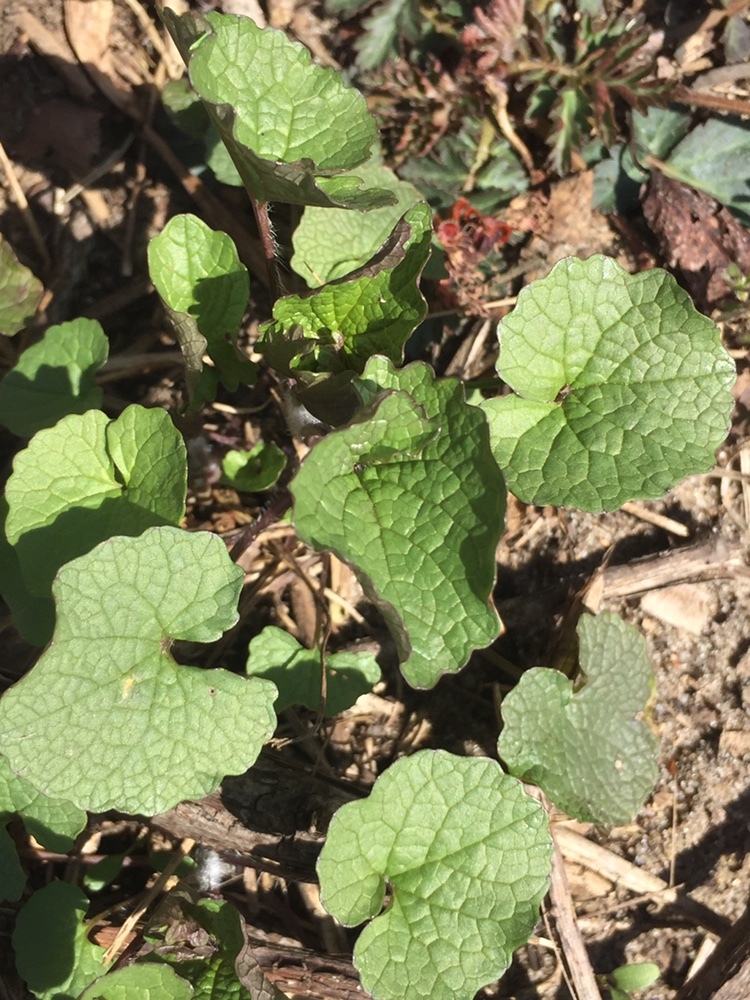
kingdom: Plantae
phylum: Tracheophyta
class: Magnoliopsida
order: Brassicales
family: Brassicaceae
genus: Alliaria
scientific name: Alliaria petiolata
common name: Garlic mustard
